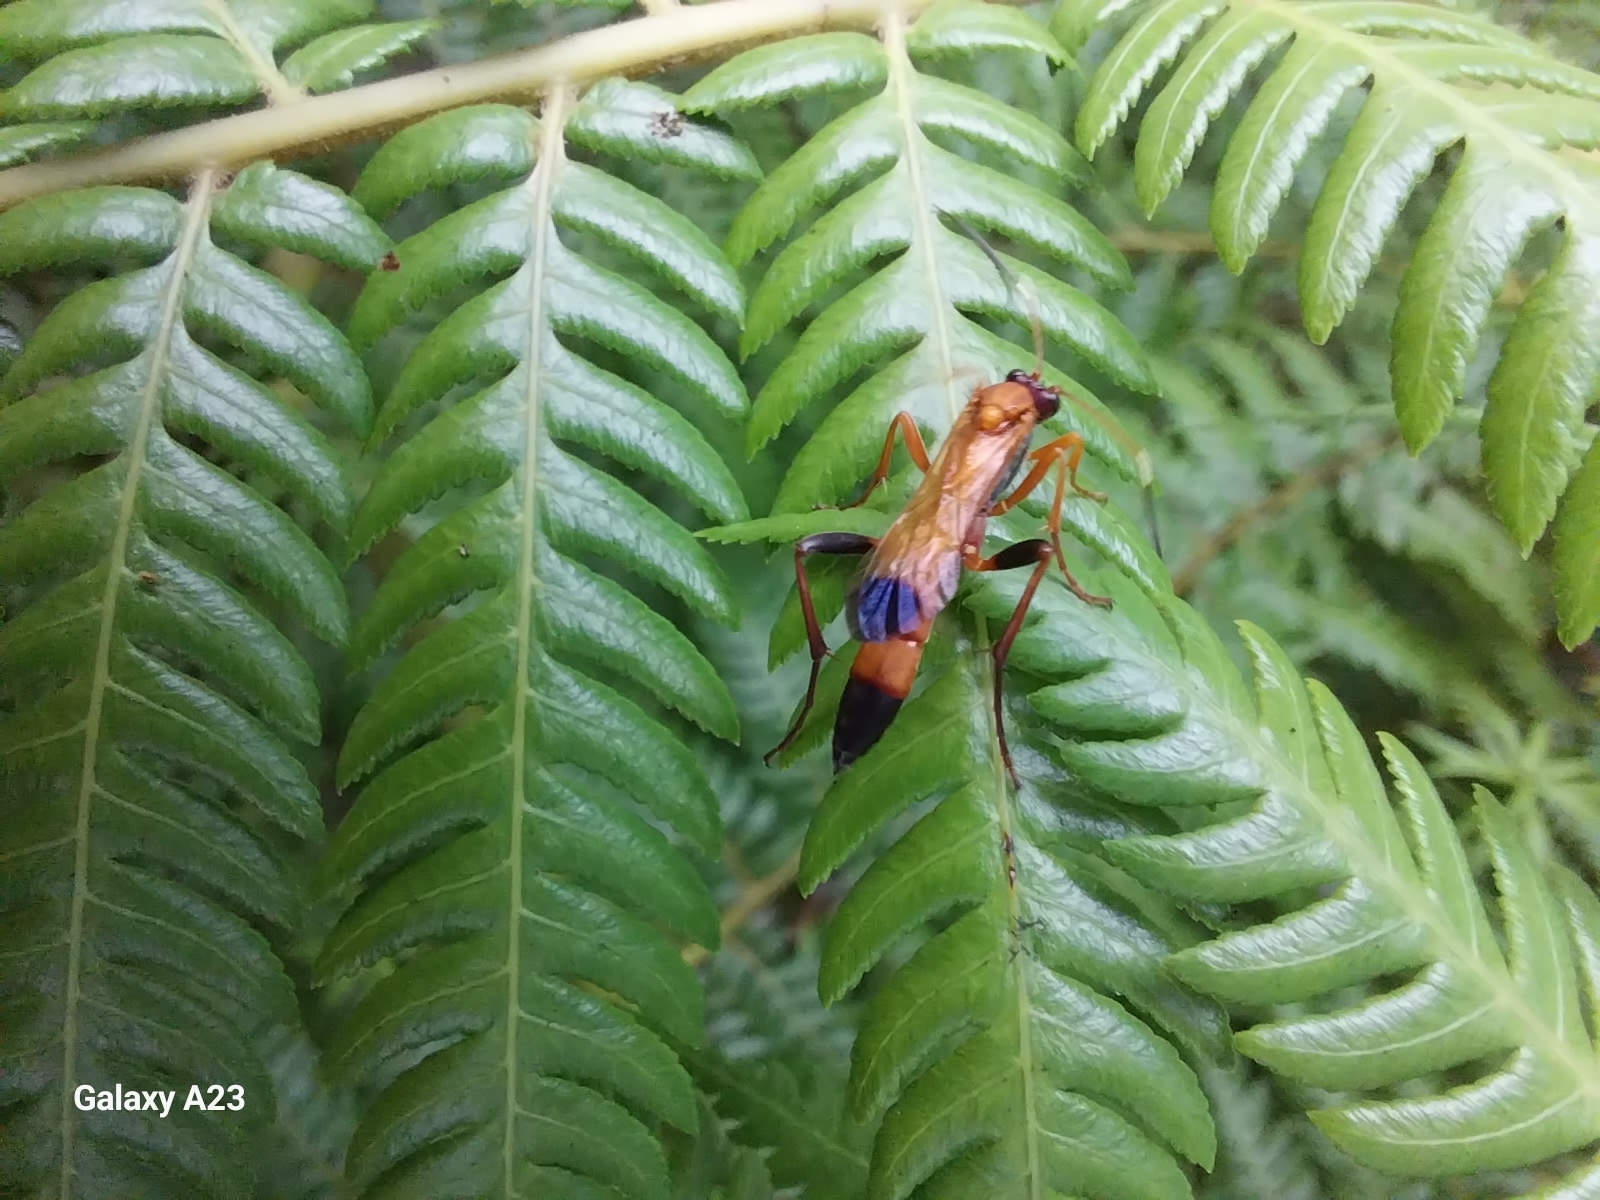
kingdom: Animalia
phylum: Arthropoda
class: Insecta
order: Hymenoptera
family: Ichneumonidae
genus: Ctenochares
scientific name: Ctenochares bicolorus
